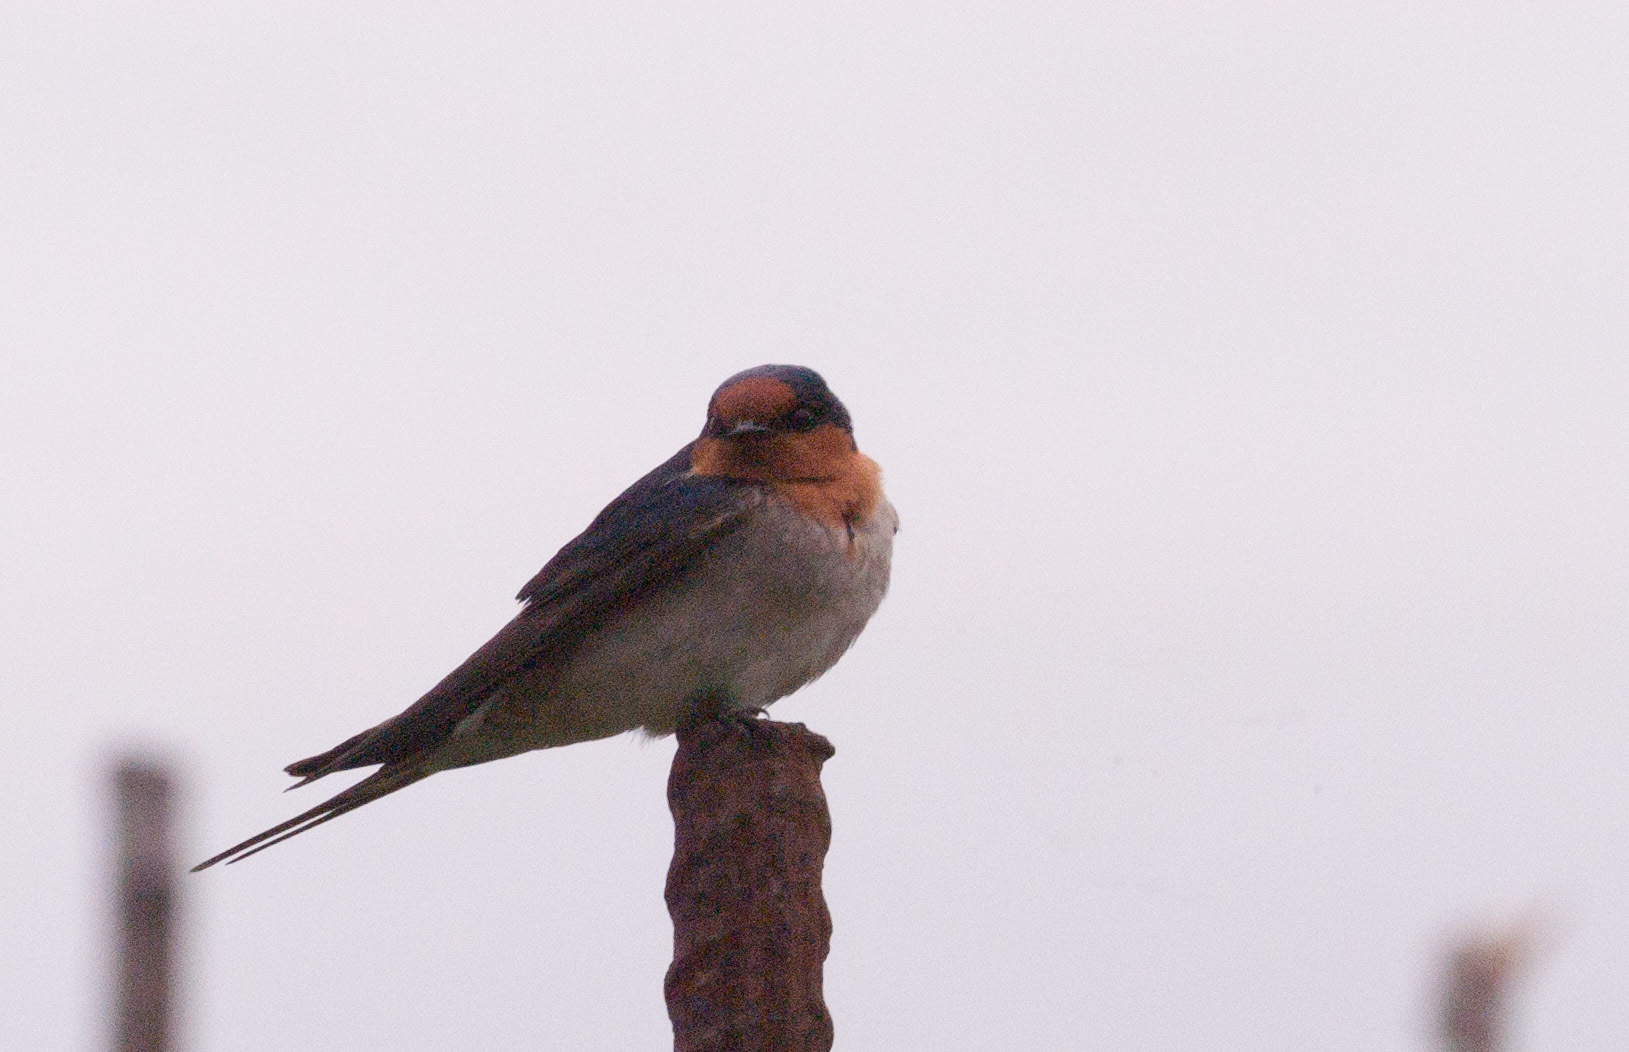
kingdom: Animalia
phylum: Chordata
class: Aves
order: Passeriformes
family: Hirundinidae
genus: Hirundo
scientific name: Hirundo neoxena
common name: Welcome swallow
